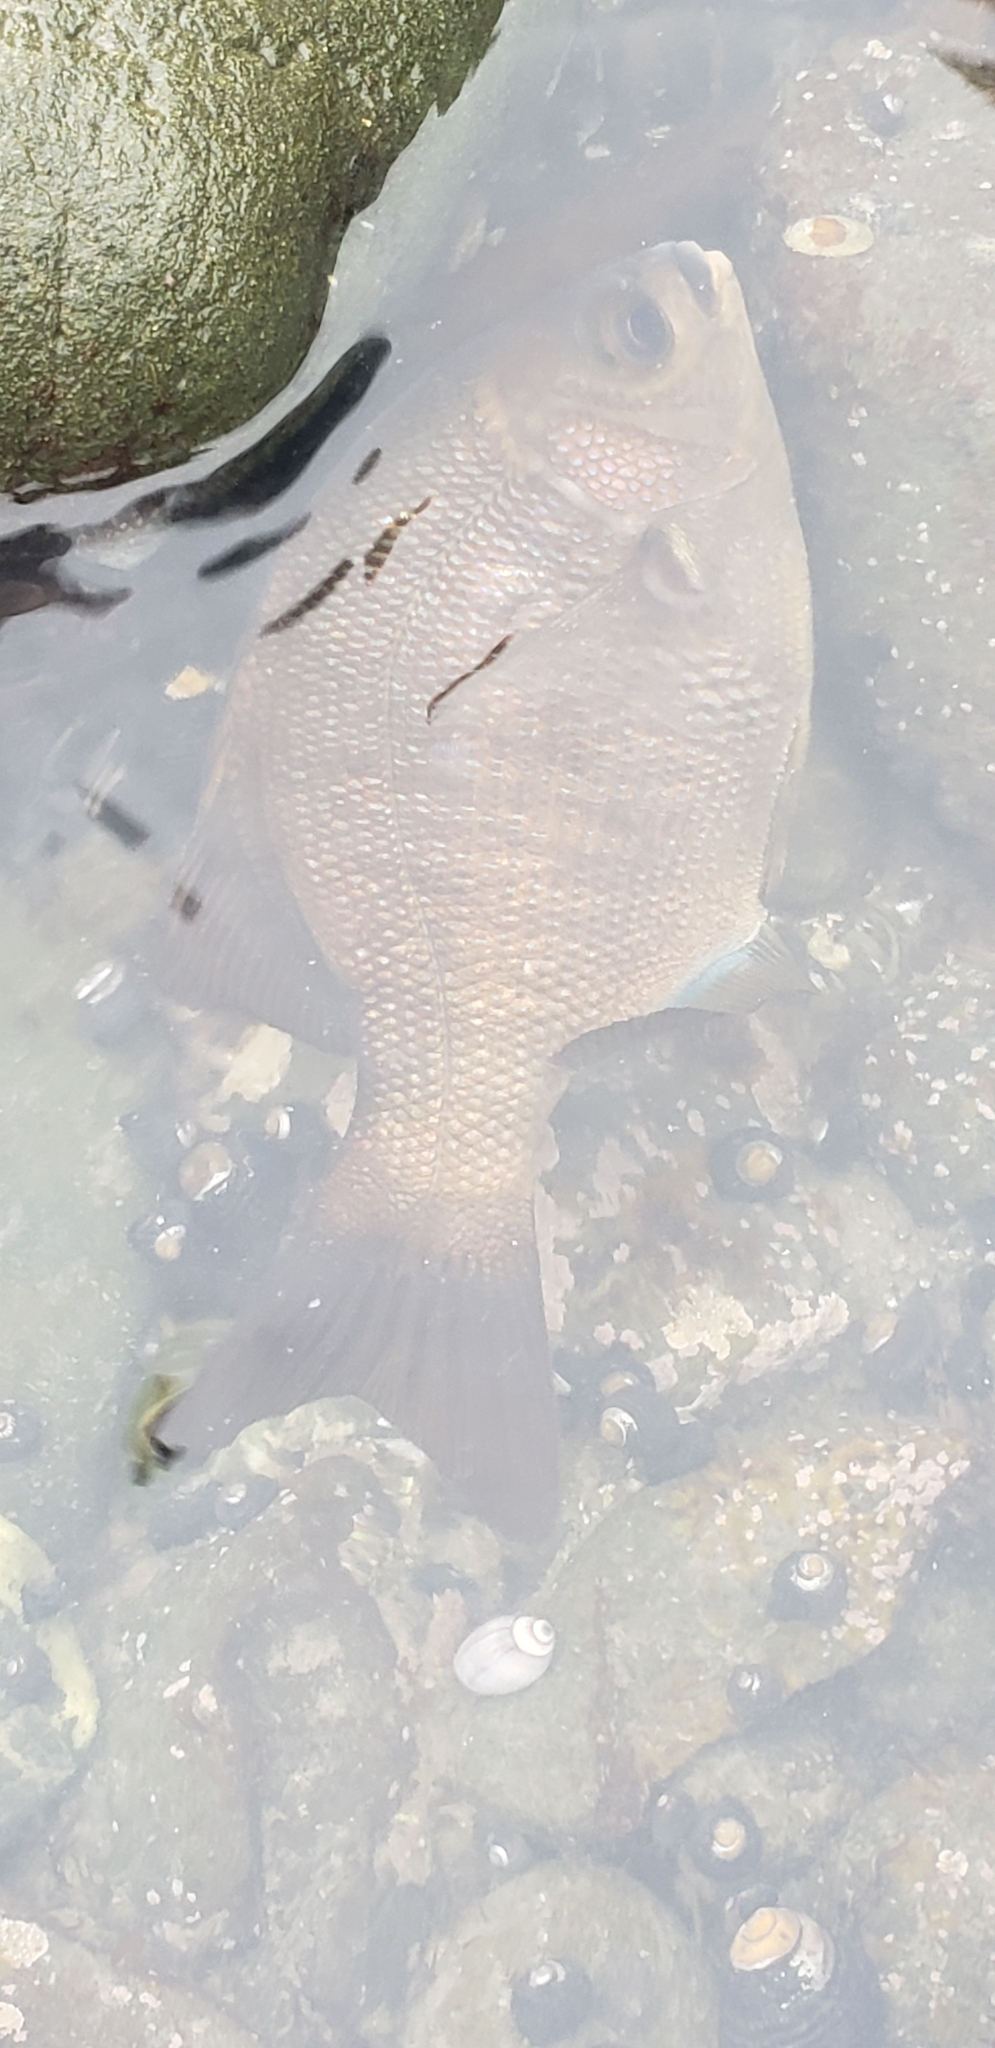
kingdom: Animalia
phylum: Chordata
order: Perciformes
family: Embiotocidae
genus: Embiotoca
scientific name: Embiotoca jacksoni
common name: Black perch
